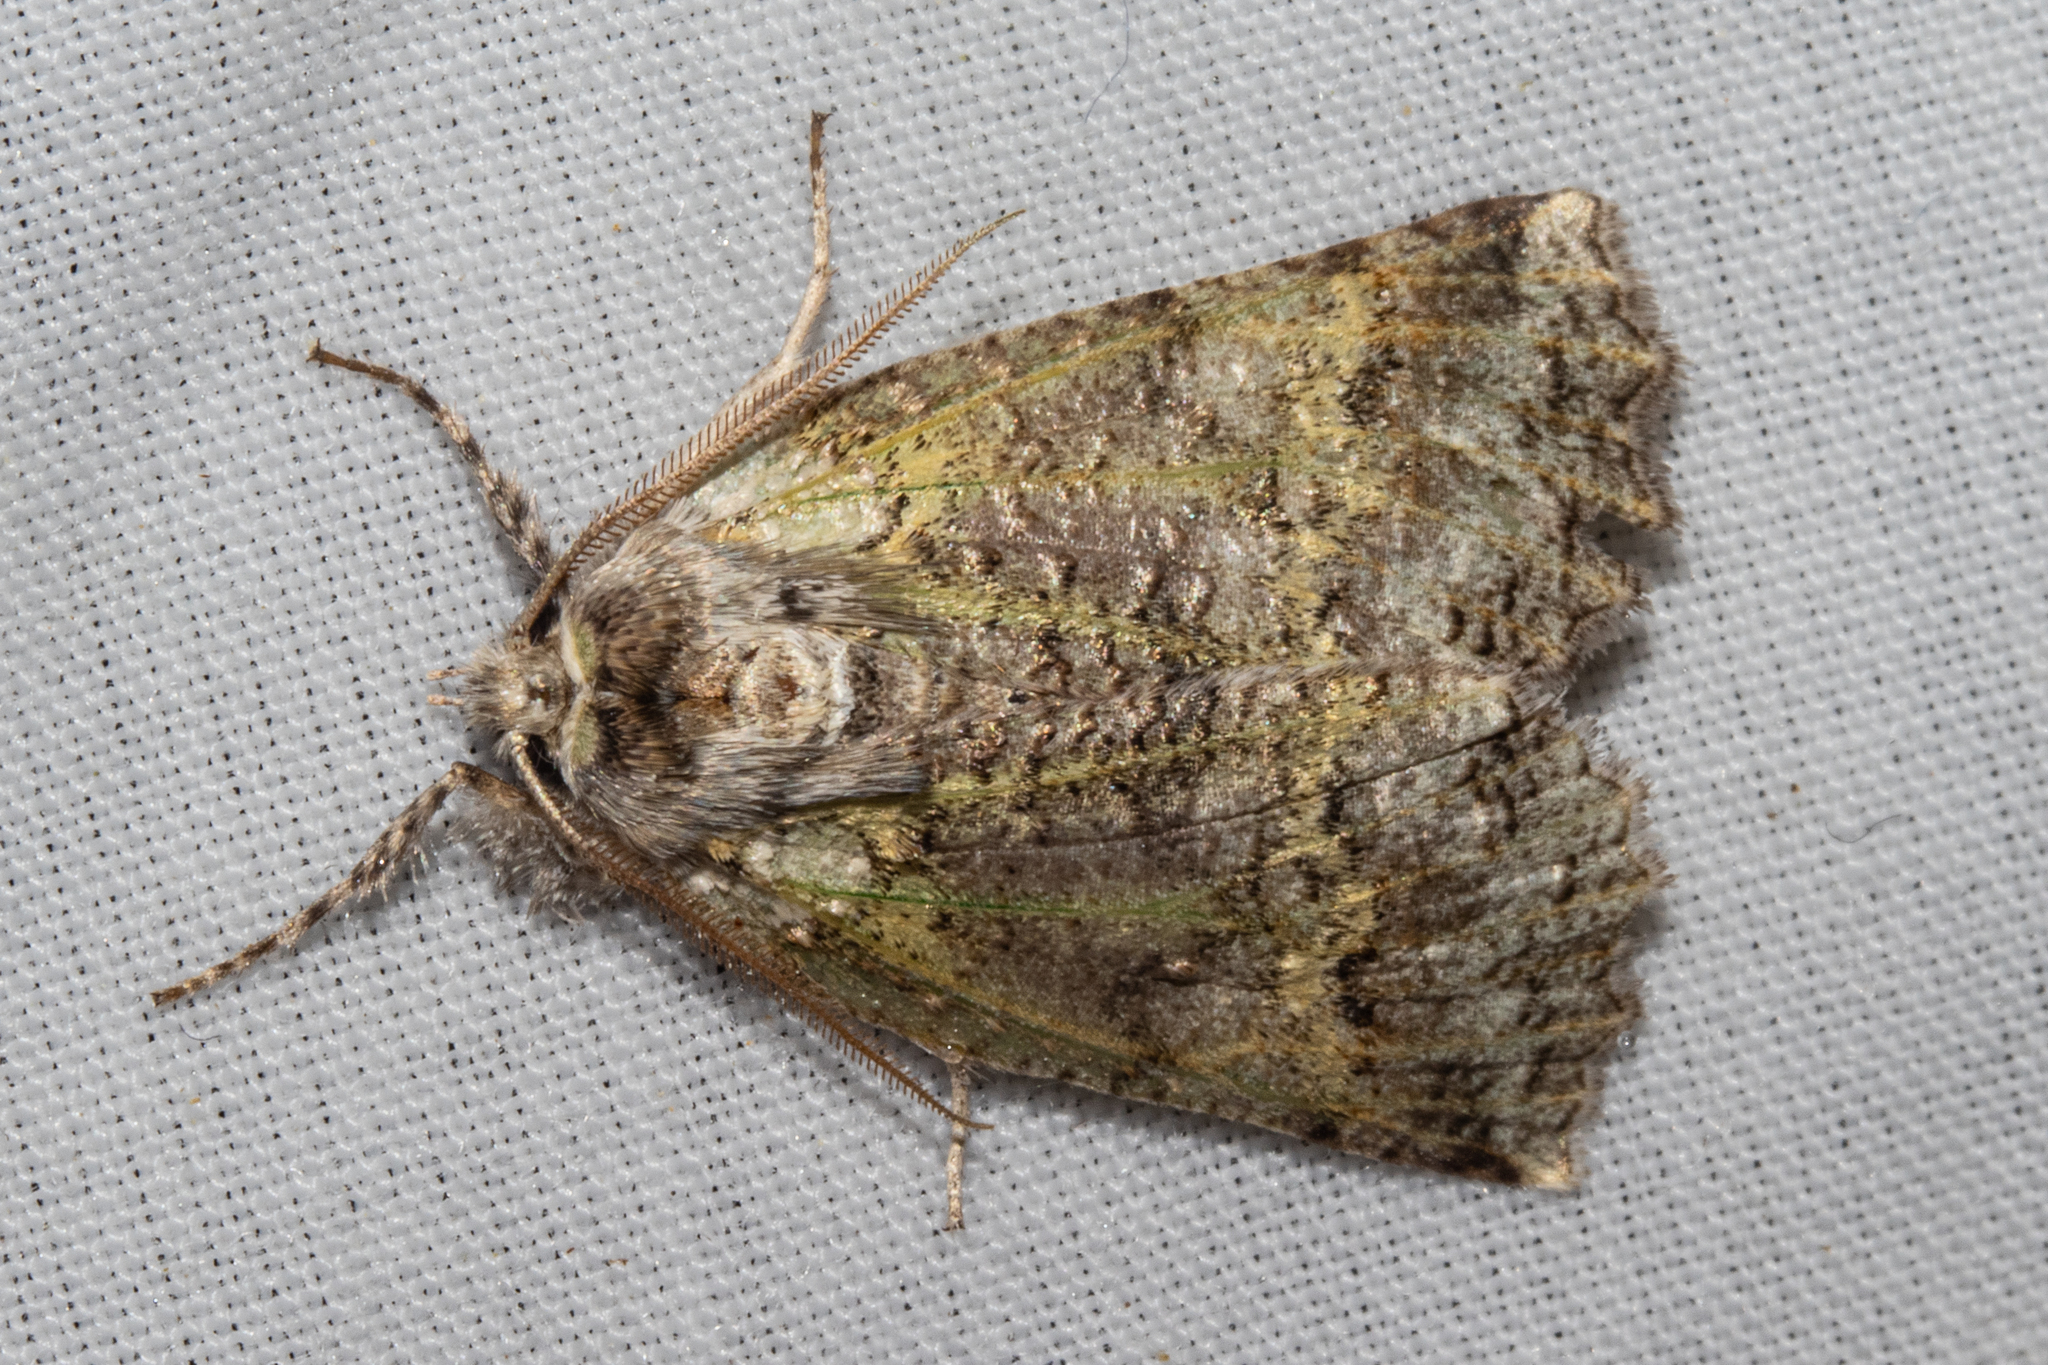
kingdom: Animalia
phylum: Arthropoda
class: Insecta
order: Lepidoptera
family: Geometridae
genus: Declana
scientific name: Declana floccosa
